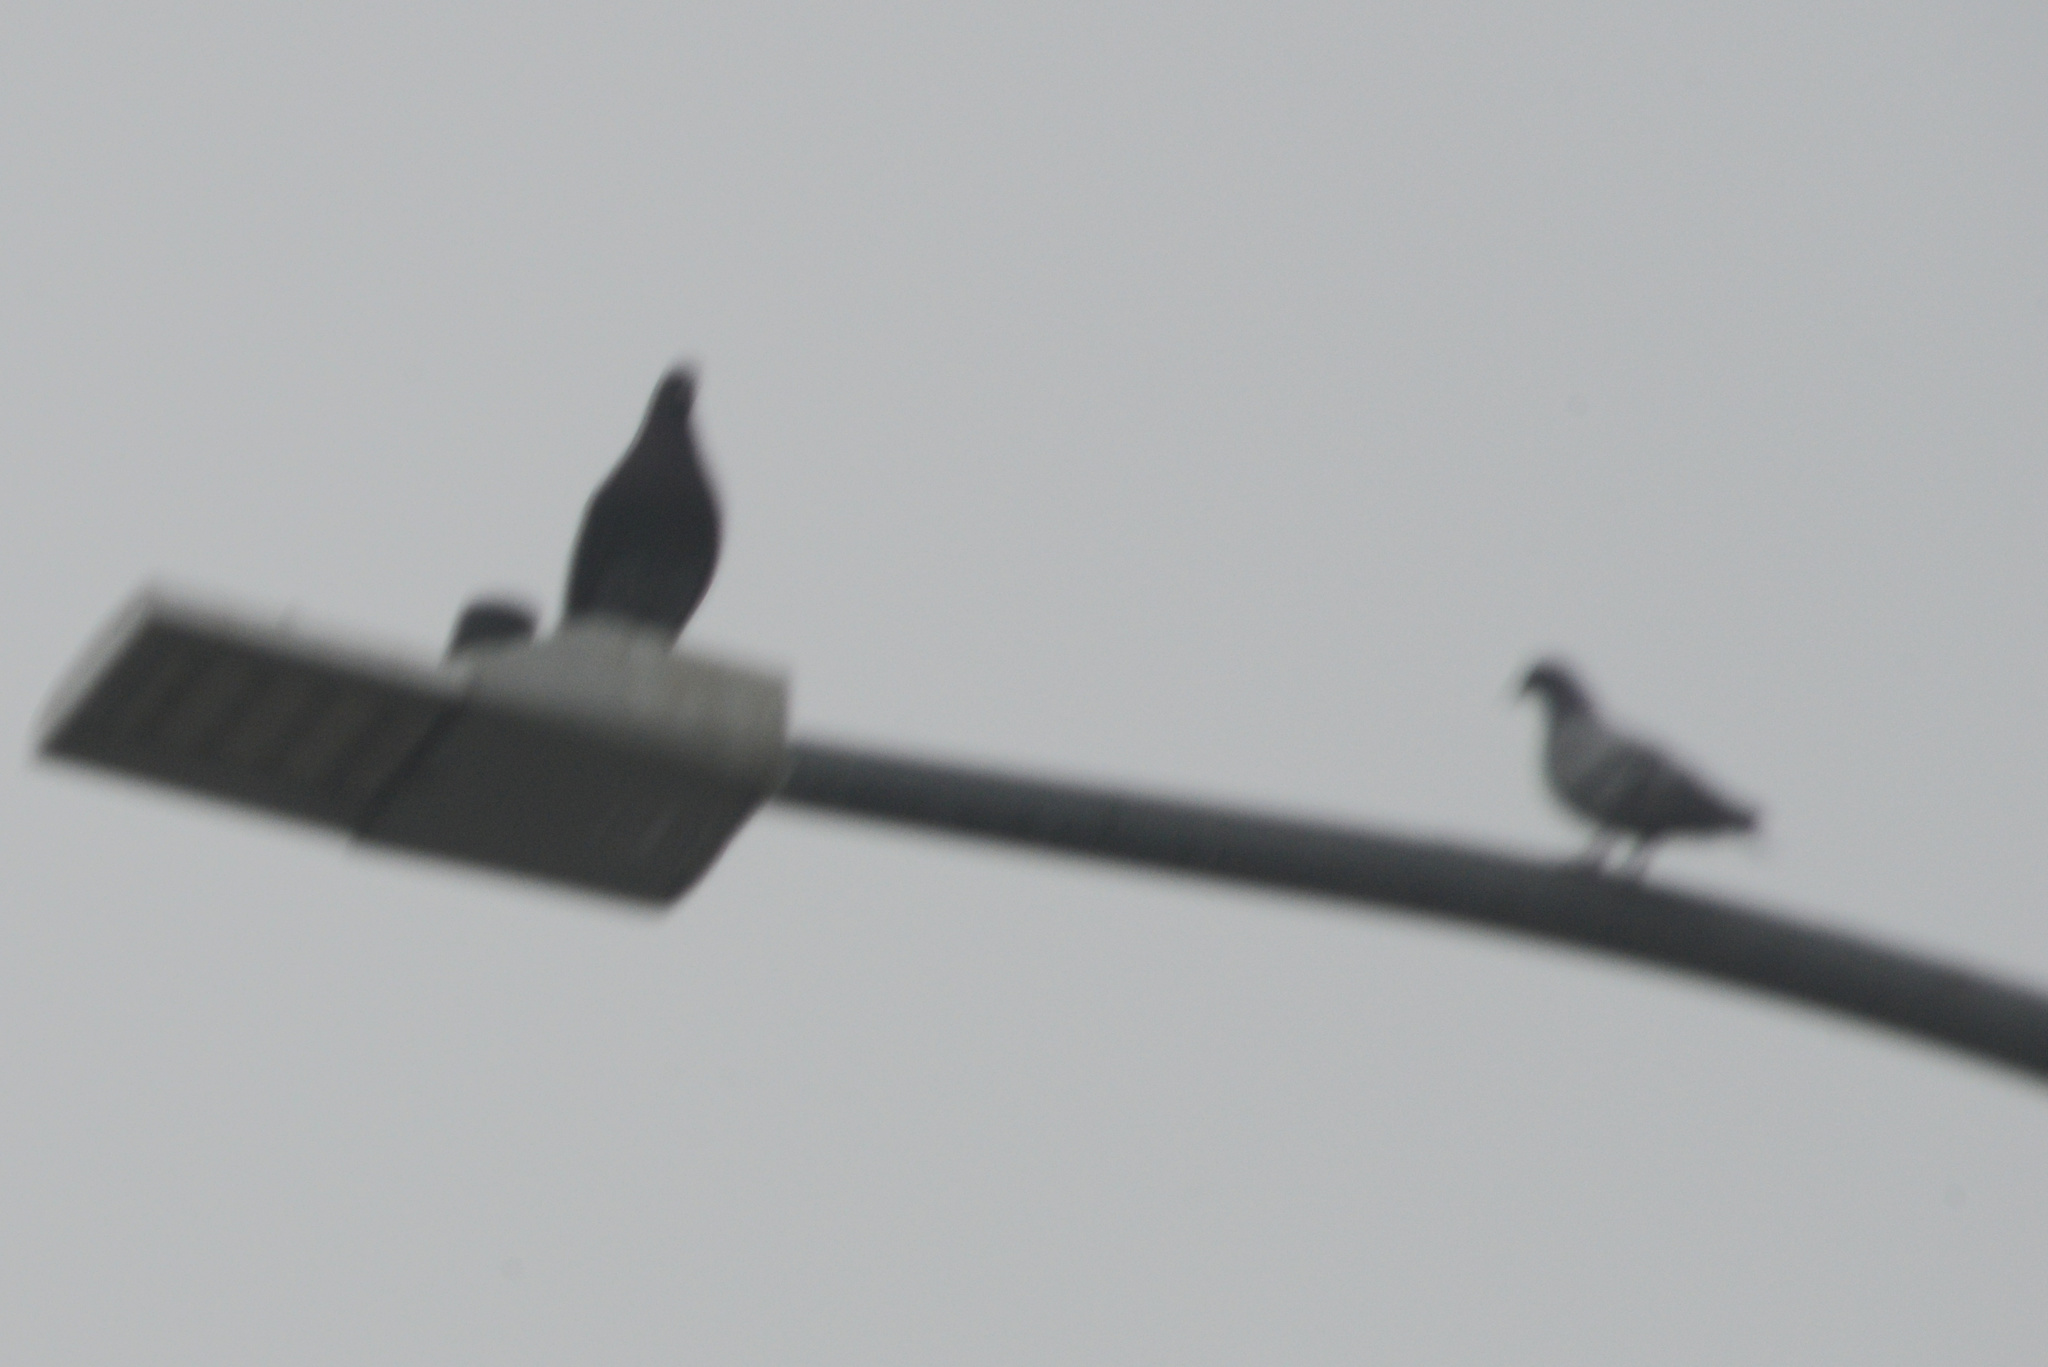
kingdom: Animalia
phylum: Chordata
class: Aves
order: Columbiformes
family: Columbidae
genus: Columba
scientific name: Columba livia
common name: Rock pigeon
